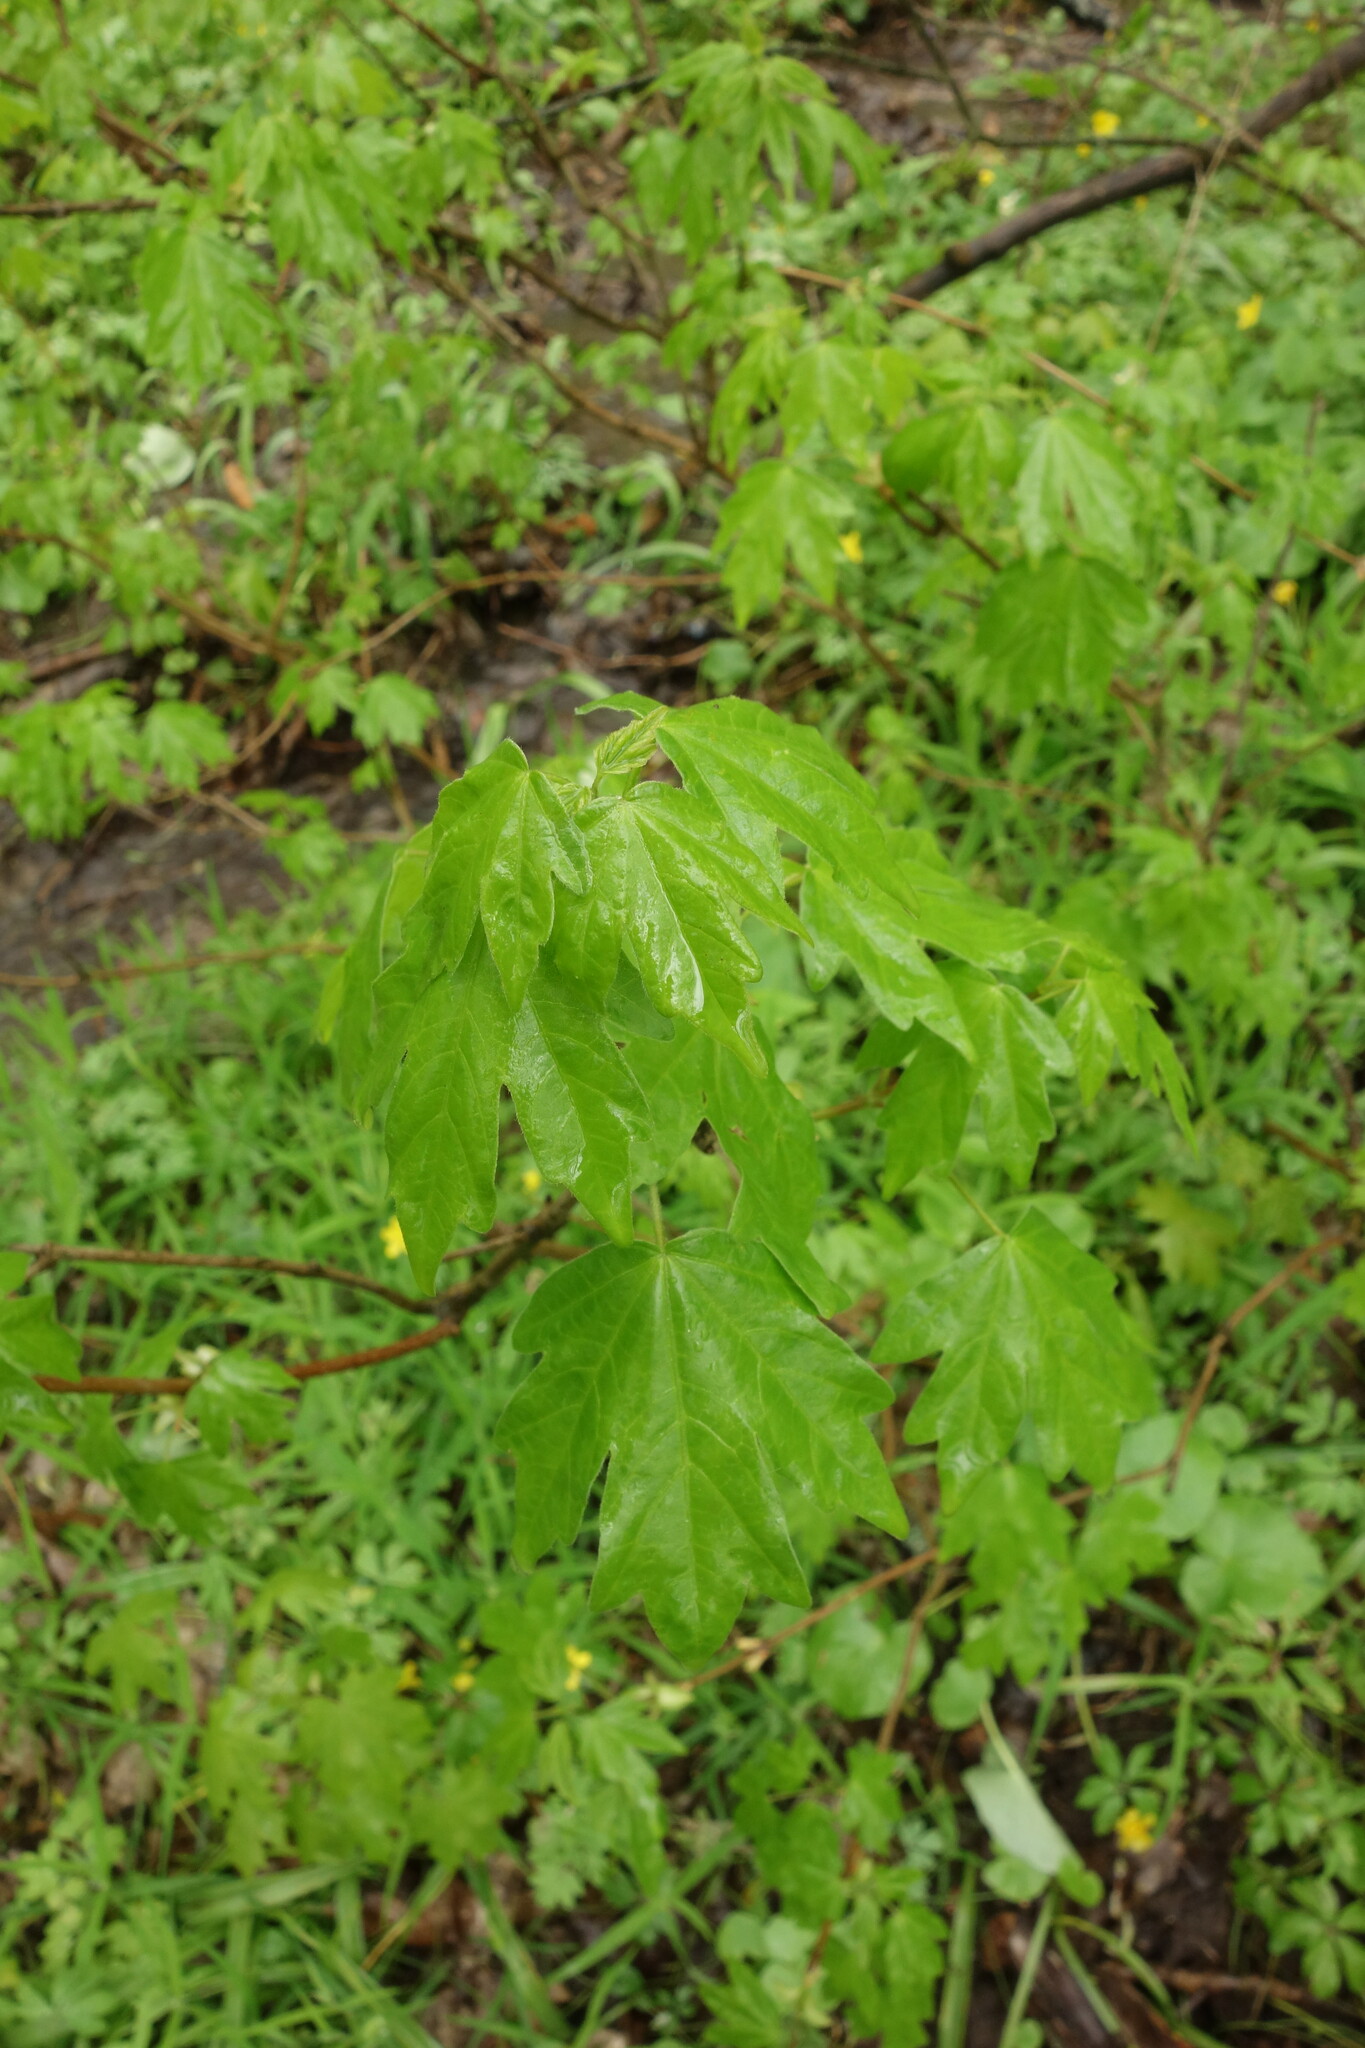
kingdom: Plantae
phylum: Tracheophyta
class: Magnoliopsida
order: Sapindales
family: Sapindaceae
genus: Acer
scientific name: Acer campestre
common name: Field maple
